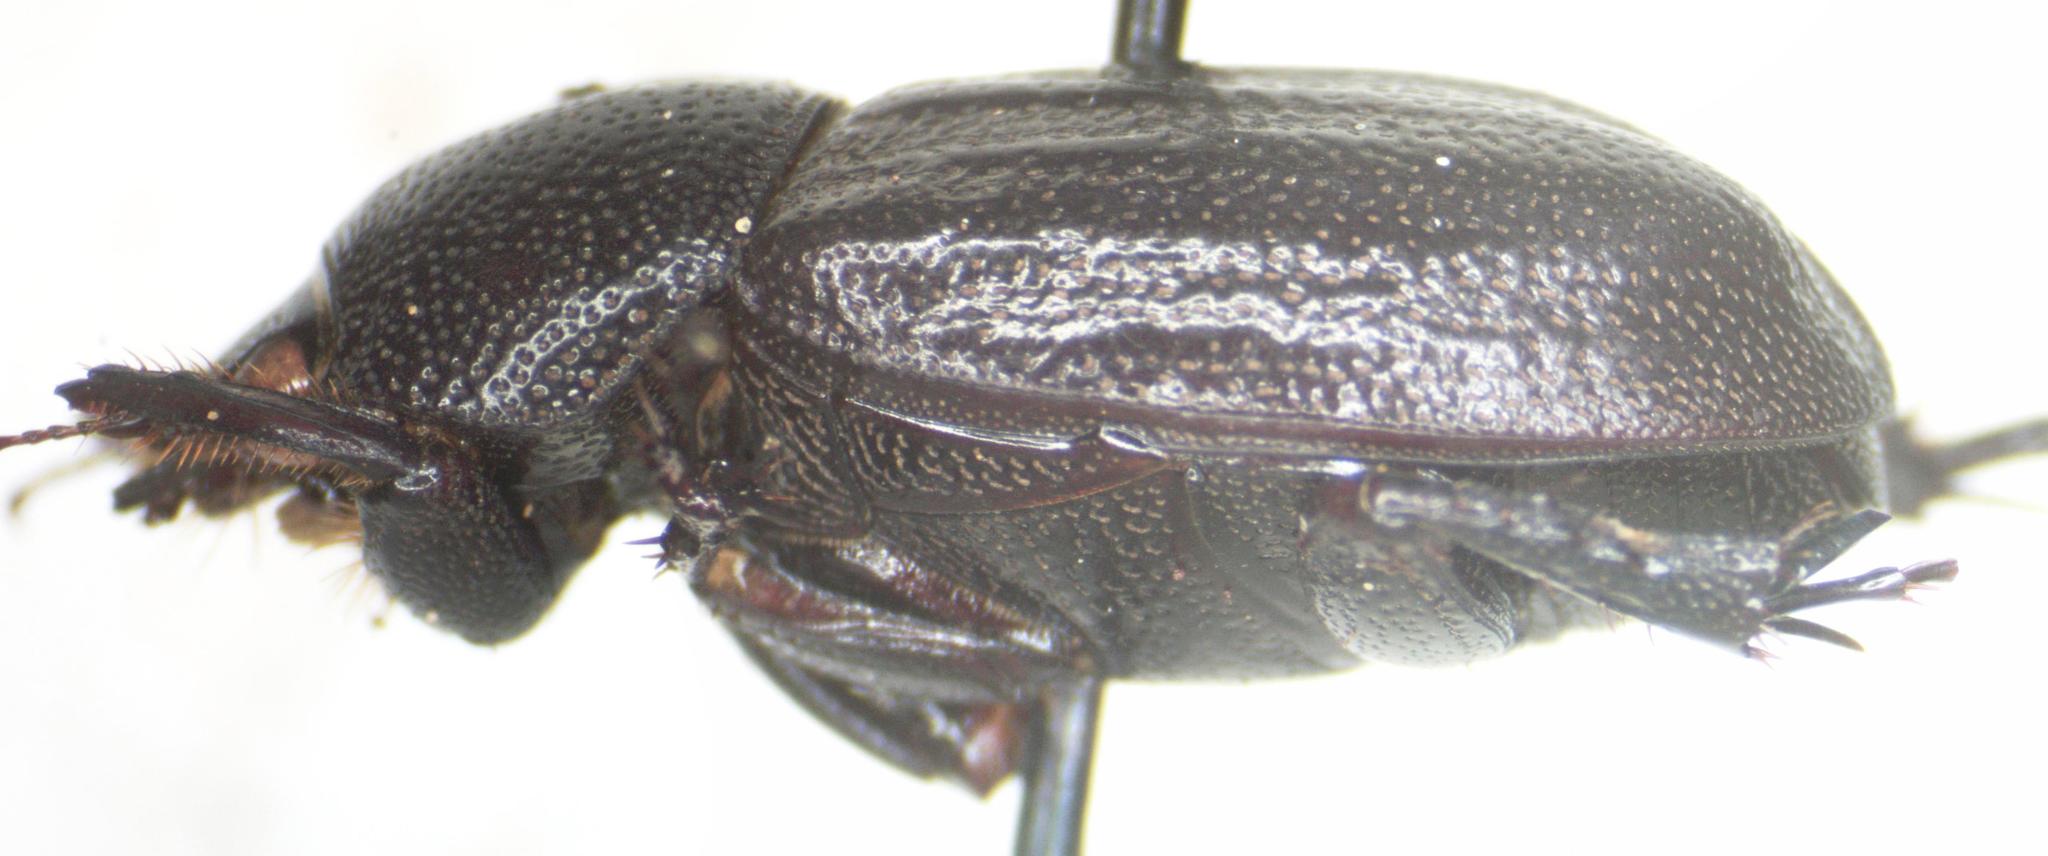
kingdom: Animalia
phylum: Arthropoda
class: Insecta
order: Coleoptera
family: Scarabaeidae
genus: Aegidium
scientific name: Aegidium cribratum
